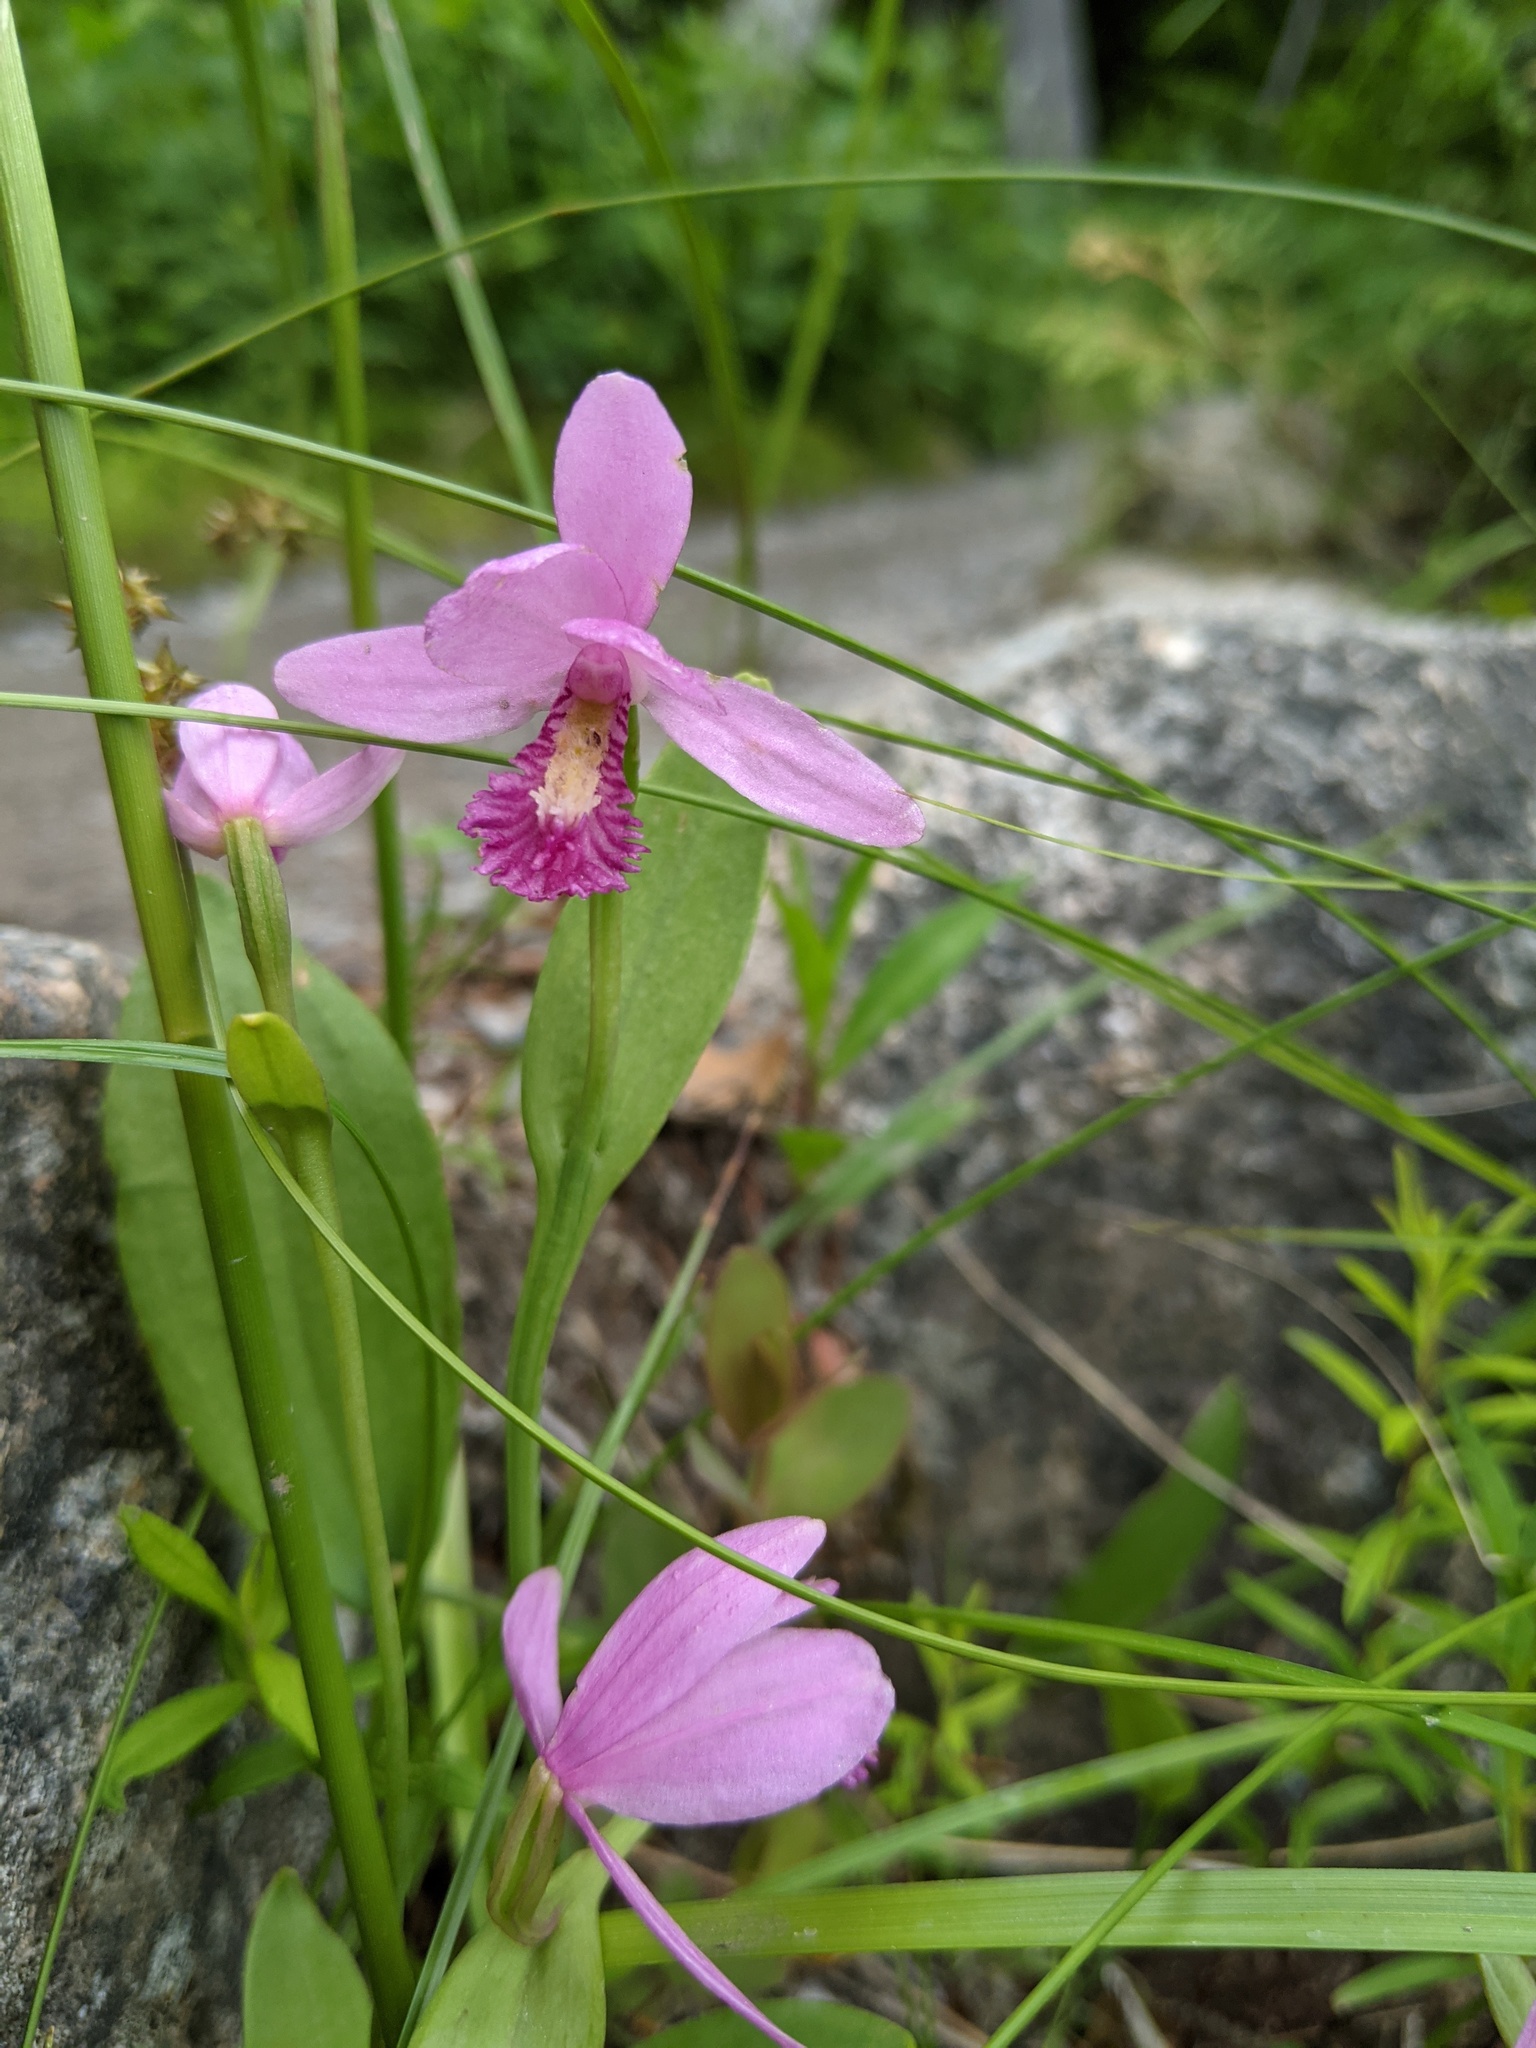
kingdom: Plantae
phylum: Tracheophyta
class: Liliopsida
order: Asparagales
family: Orchidaceae
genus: Pogonia
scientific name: Pogonia ophioglossoides
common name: Rose pogonia
